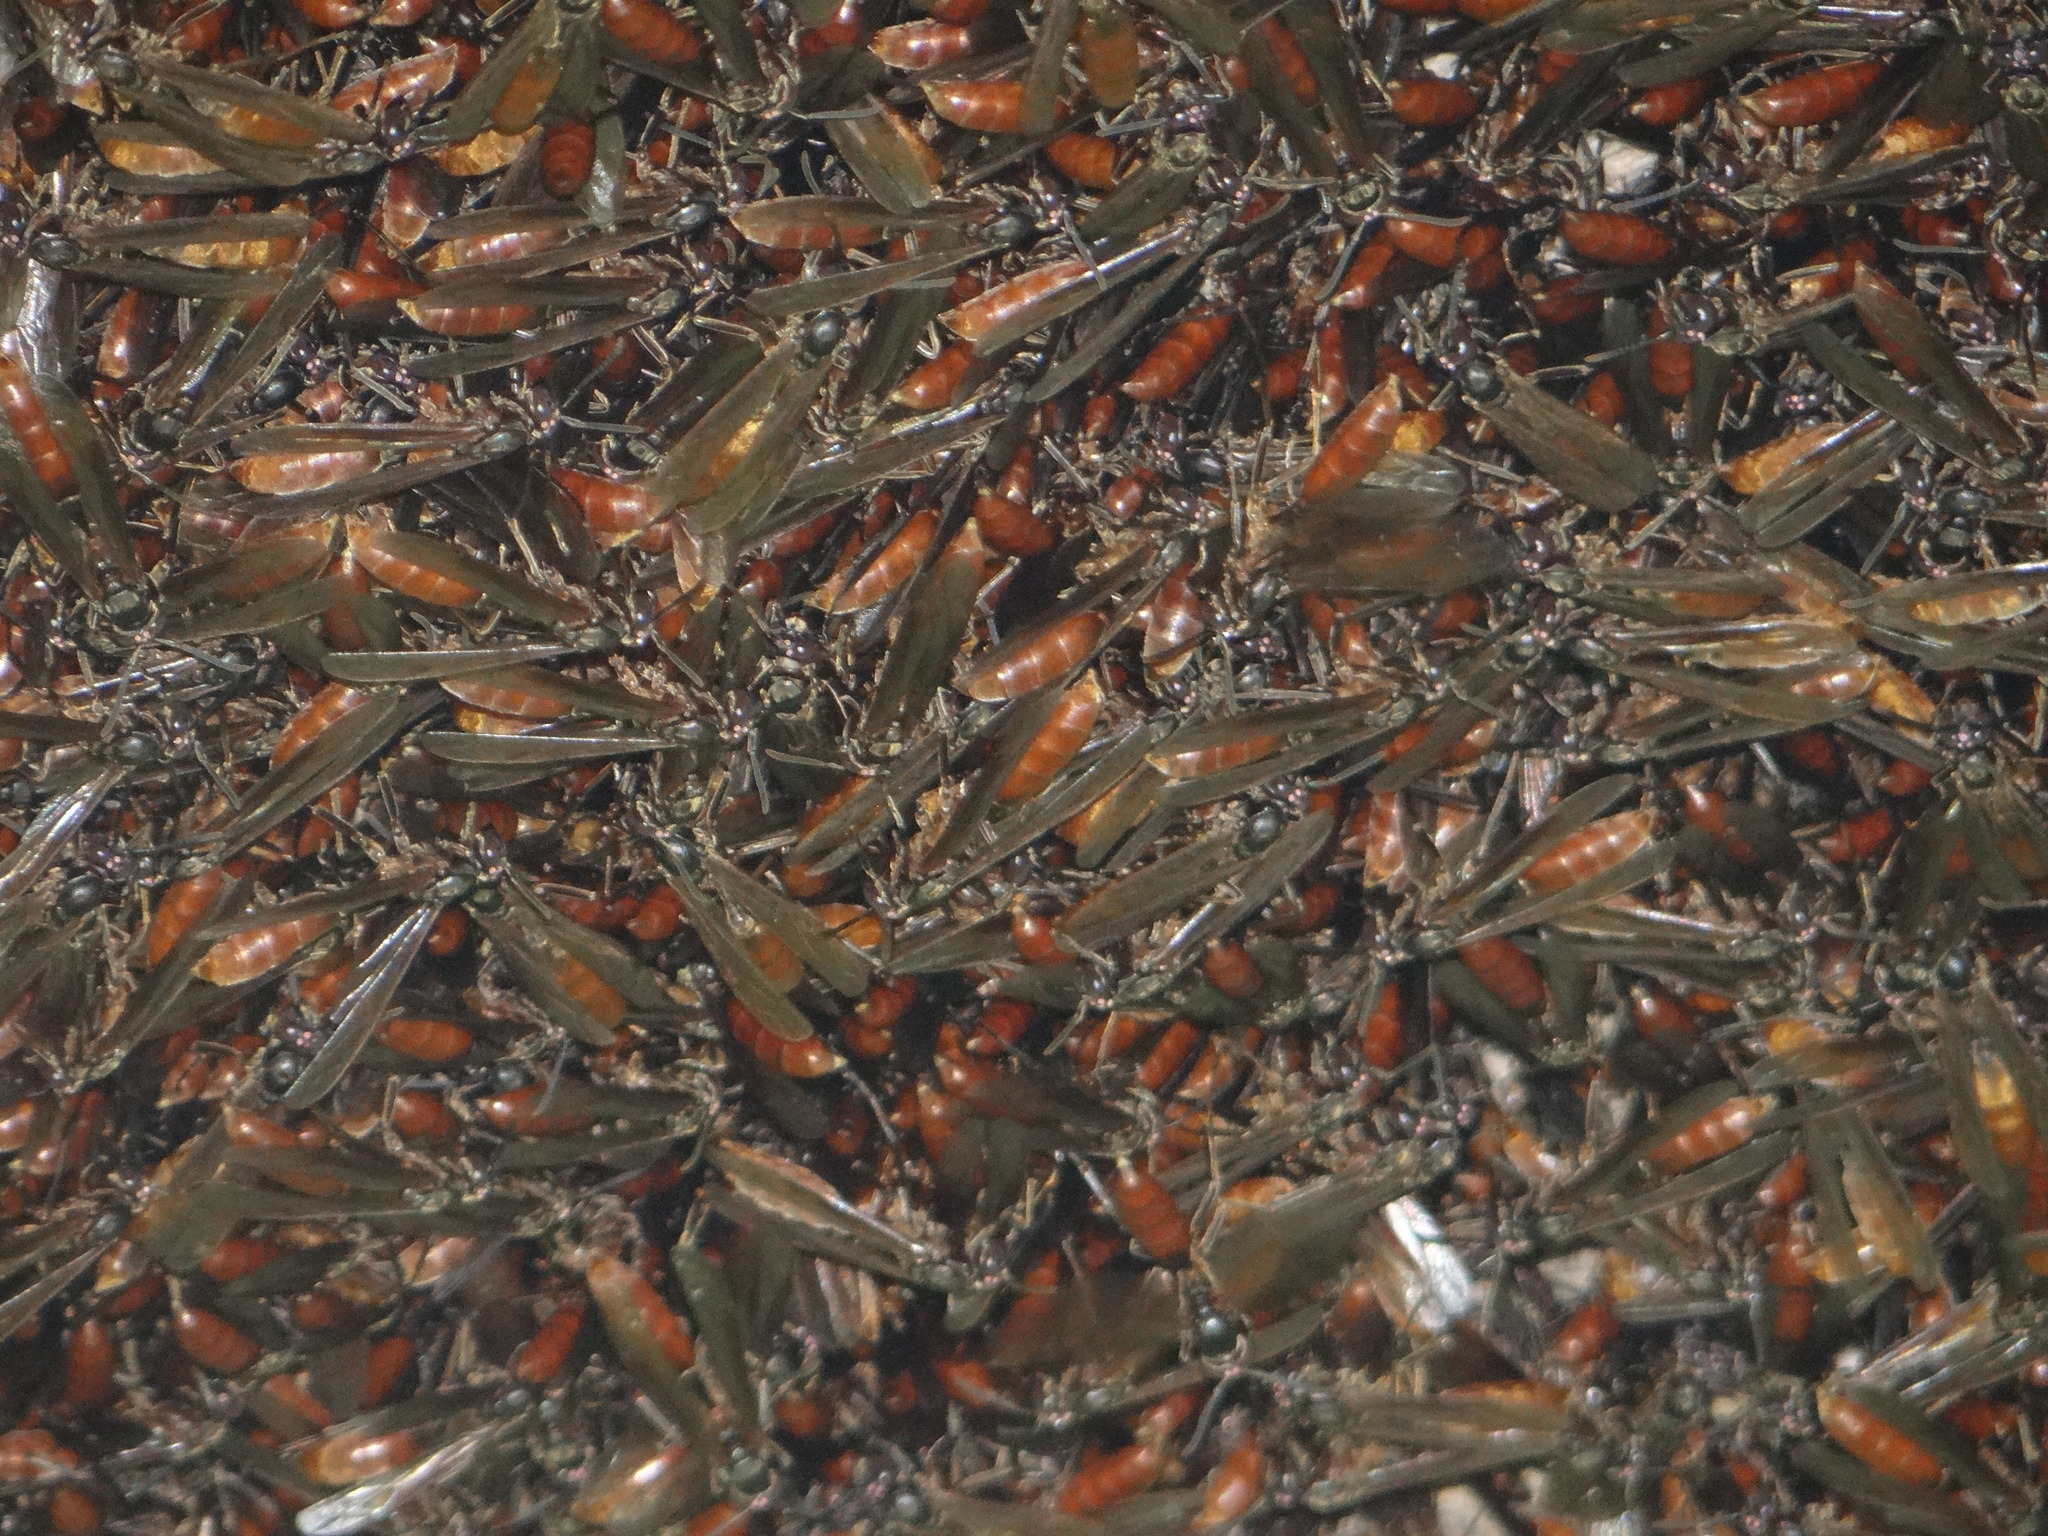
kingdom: Animalia
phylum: Arthropoda
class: Insecta
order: Hymenoptera
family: Vespidae
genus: Apoica
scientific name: Apoica thoracica
